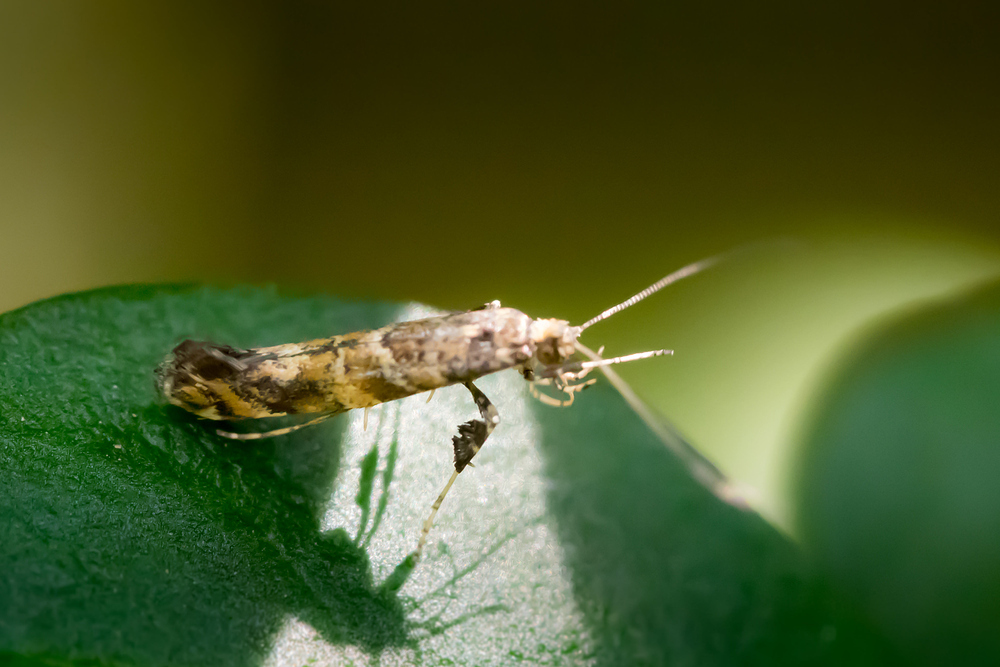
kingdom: Animalia
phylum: Arthropoda
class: Insecta
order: Lepidoptera
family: Gracillariidae
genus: Gracillaria
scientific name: Gracillaria syringella
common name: Common slender
